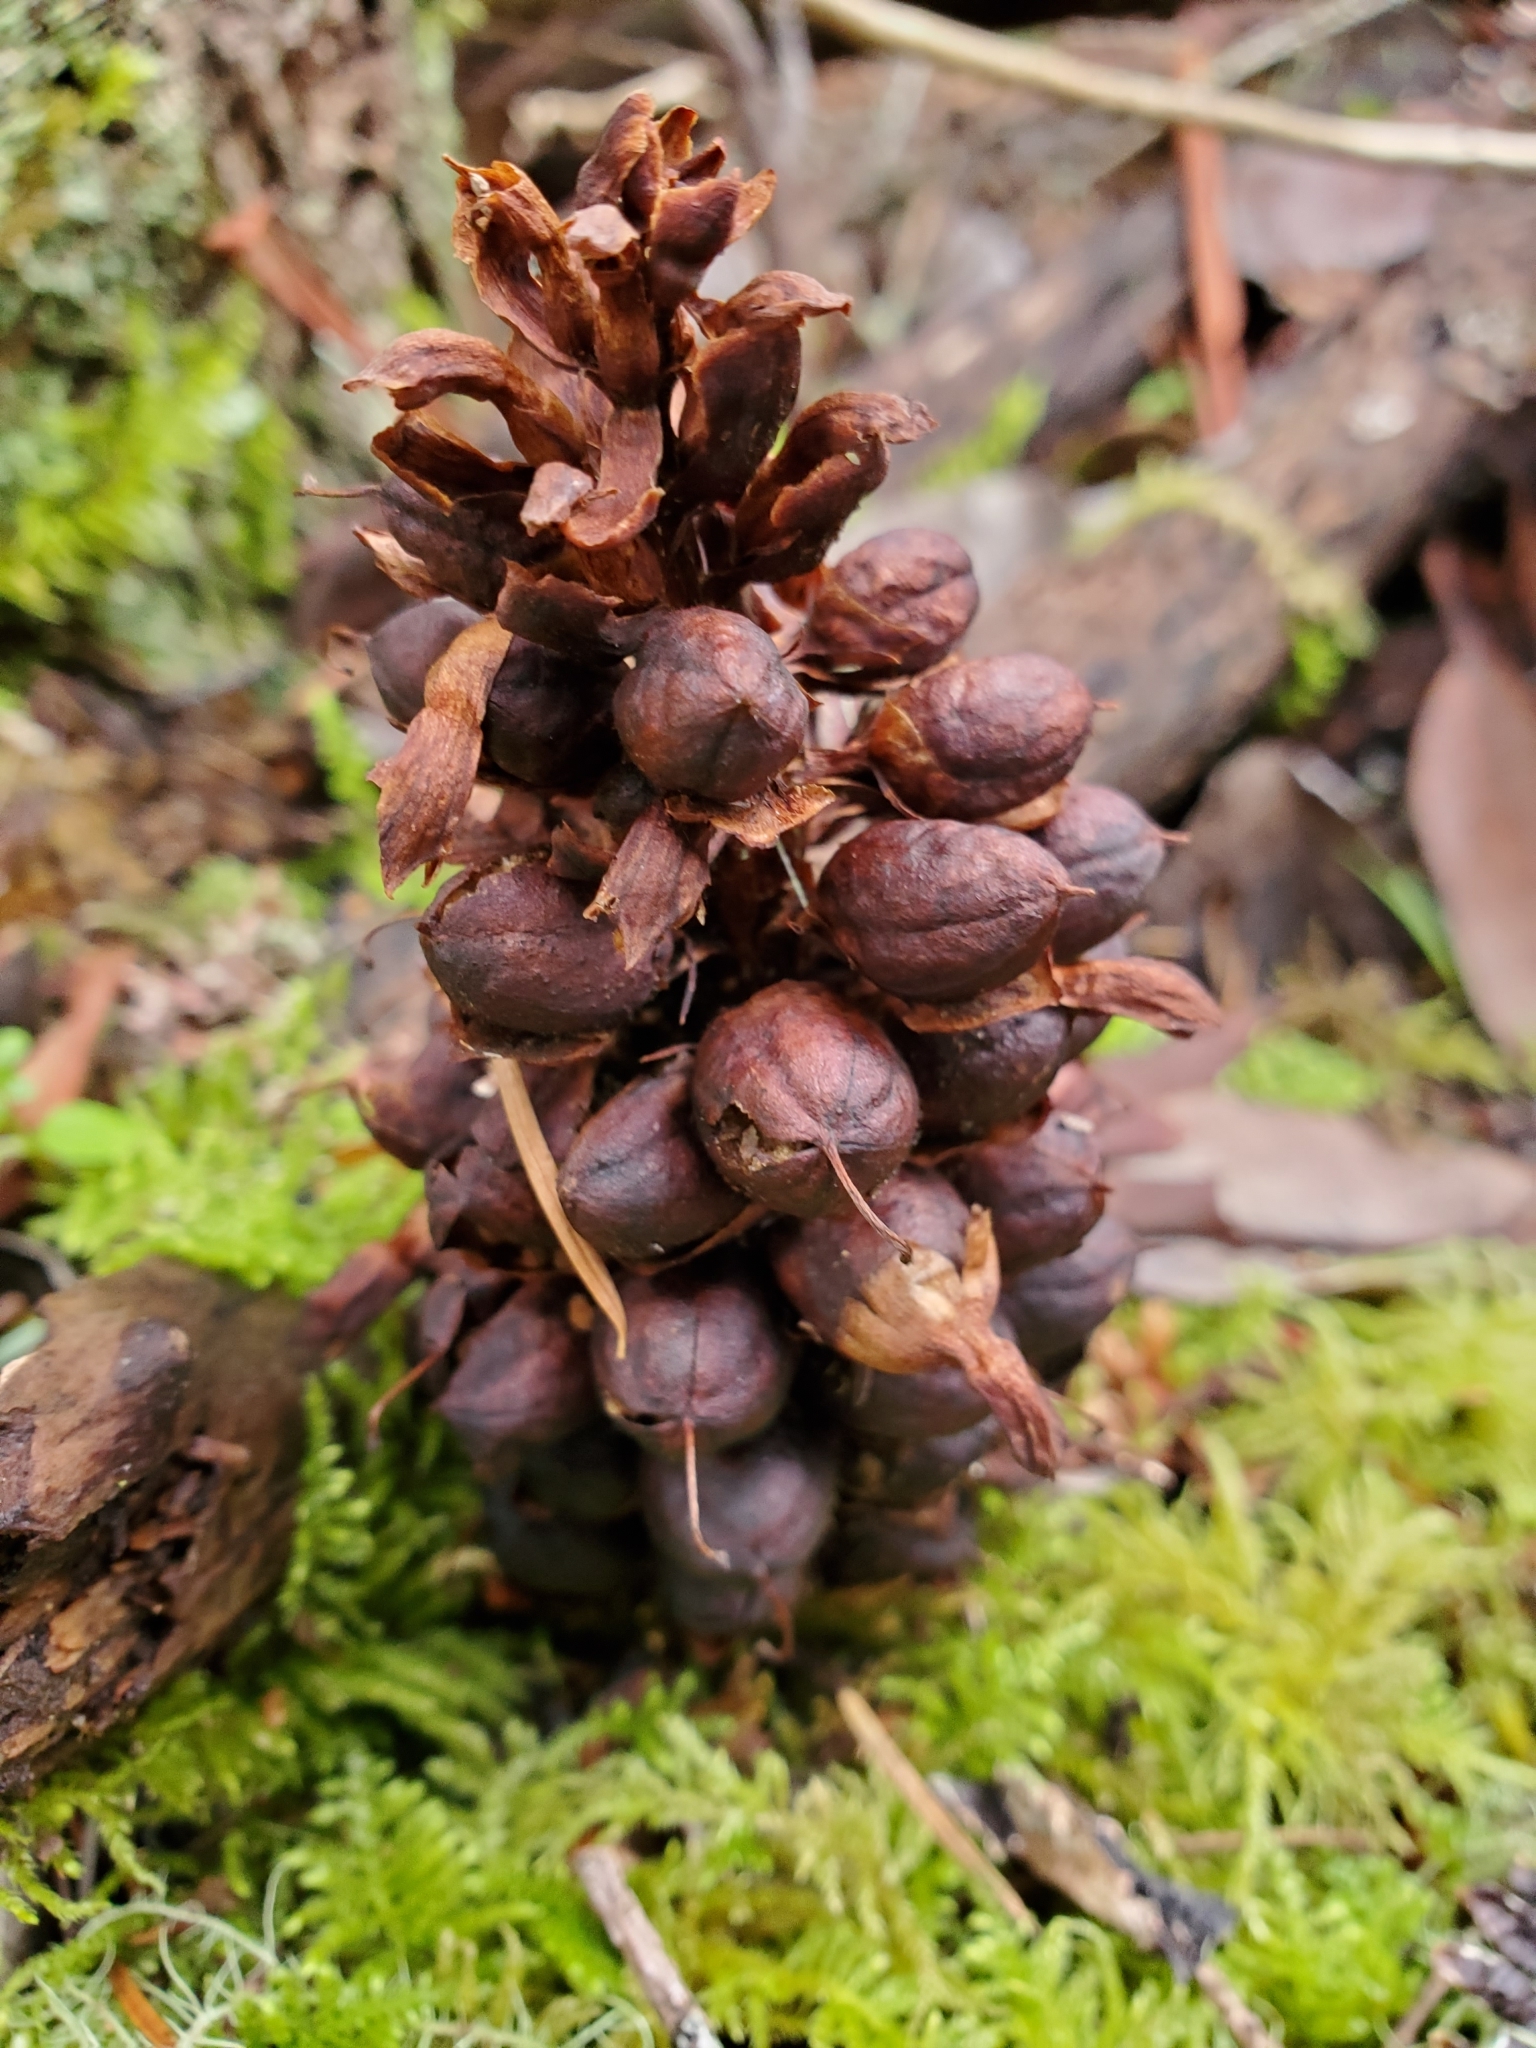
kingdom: Plantae
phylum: Tracheophyta
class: Magnoliopsida
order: Lamiales
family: Orobanchaceae
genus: Kopsiopsis
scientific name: Kopsiopsis hookeri
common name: Hooker's groundcone
